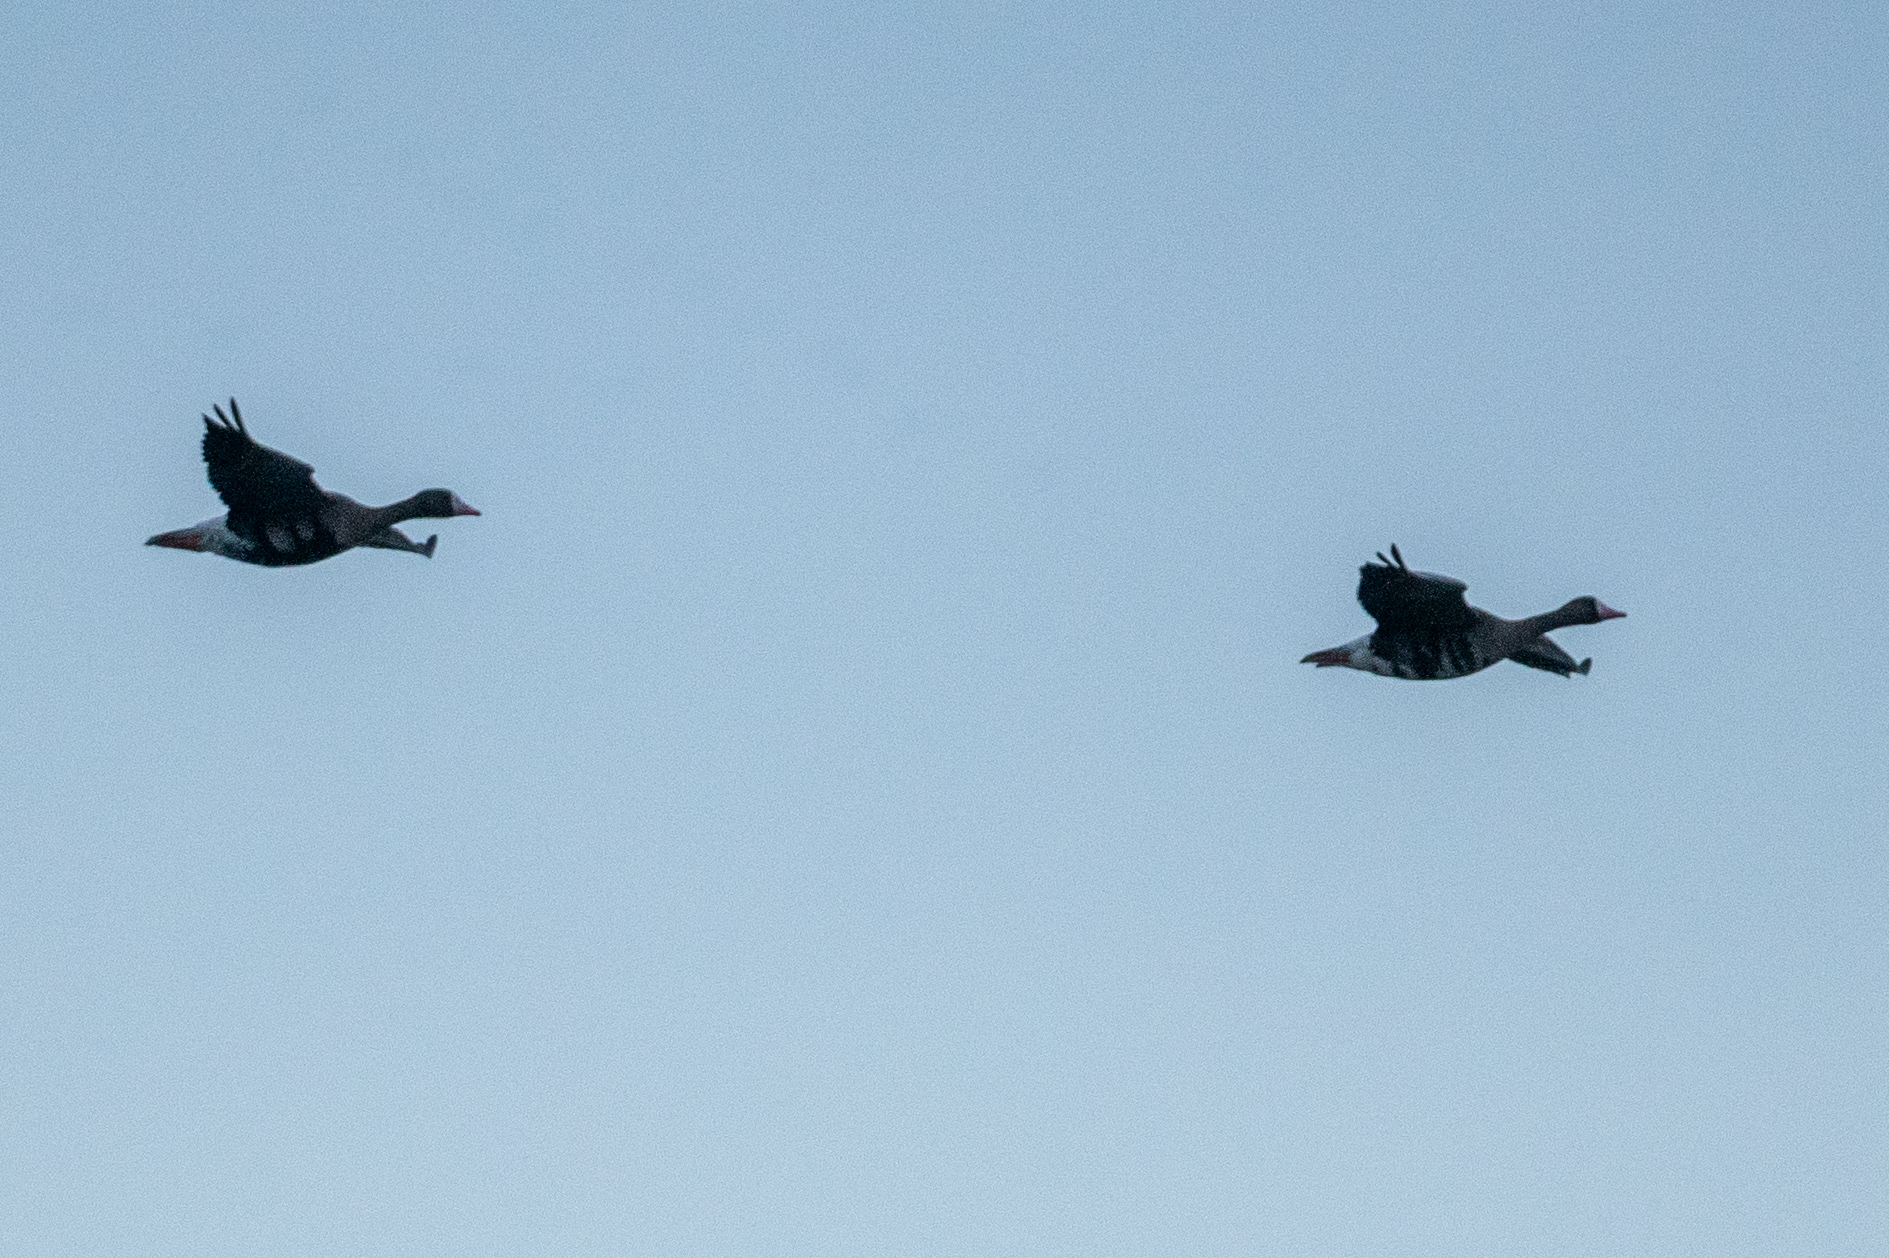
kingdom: Animalia
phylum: Chordata
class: Aves
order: Anseriformes
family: Anatidae
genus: Anser
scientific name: Anser albifrons
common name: Greater white-fronted goose
